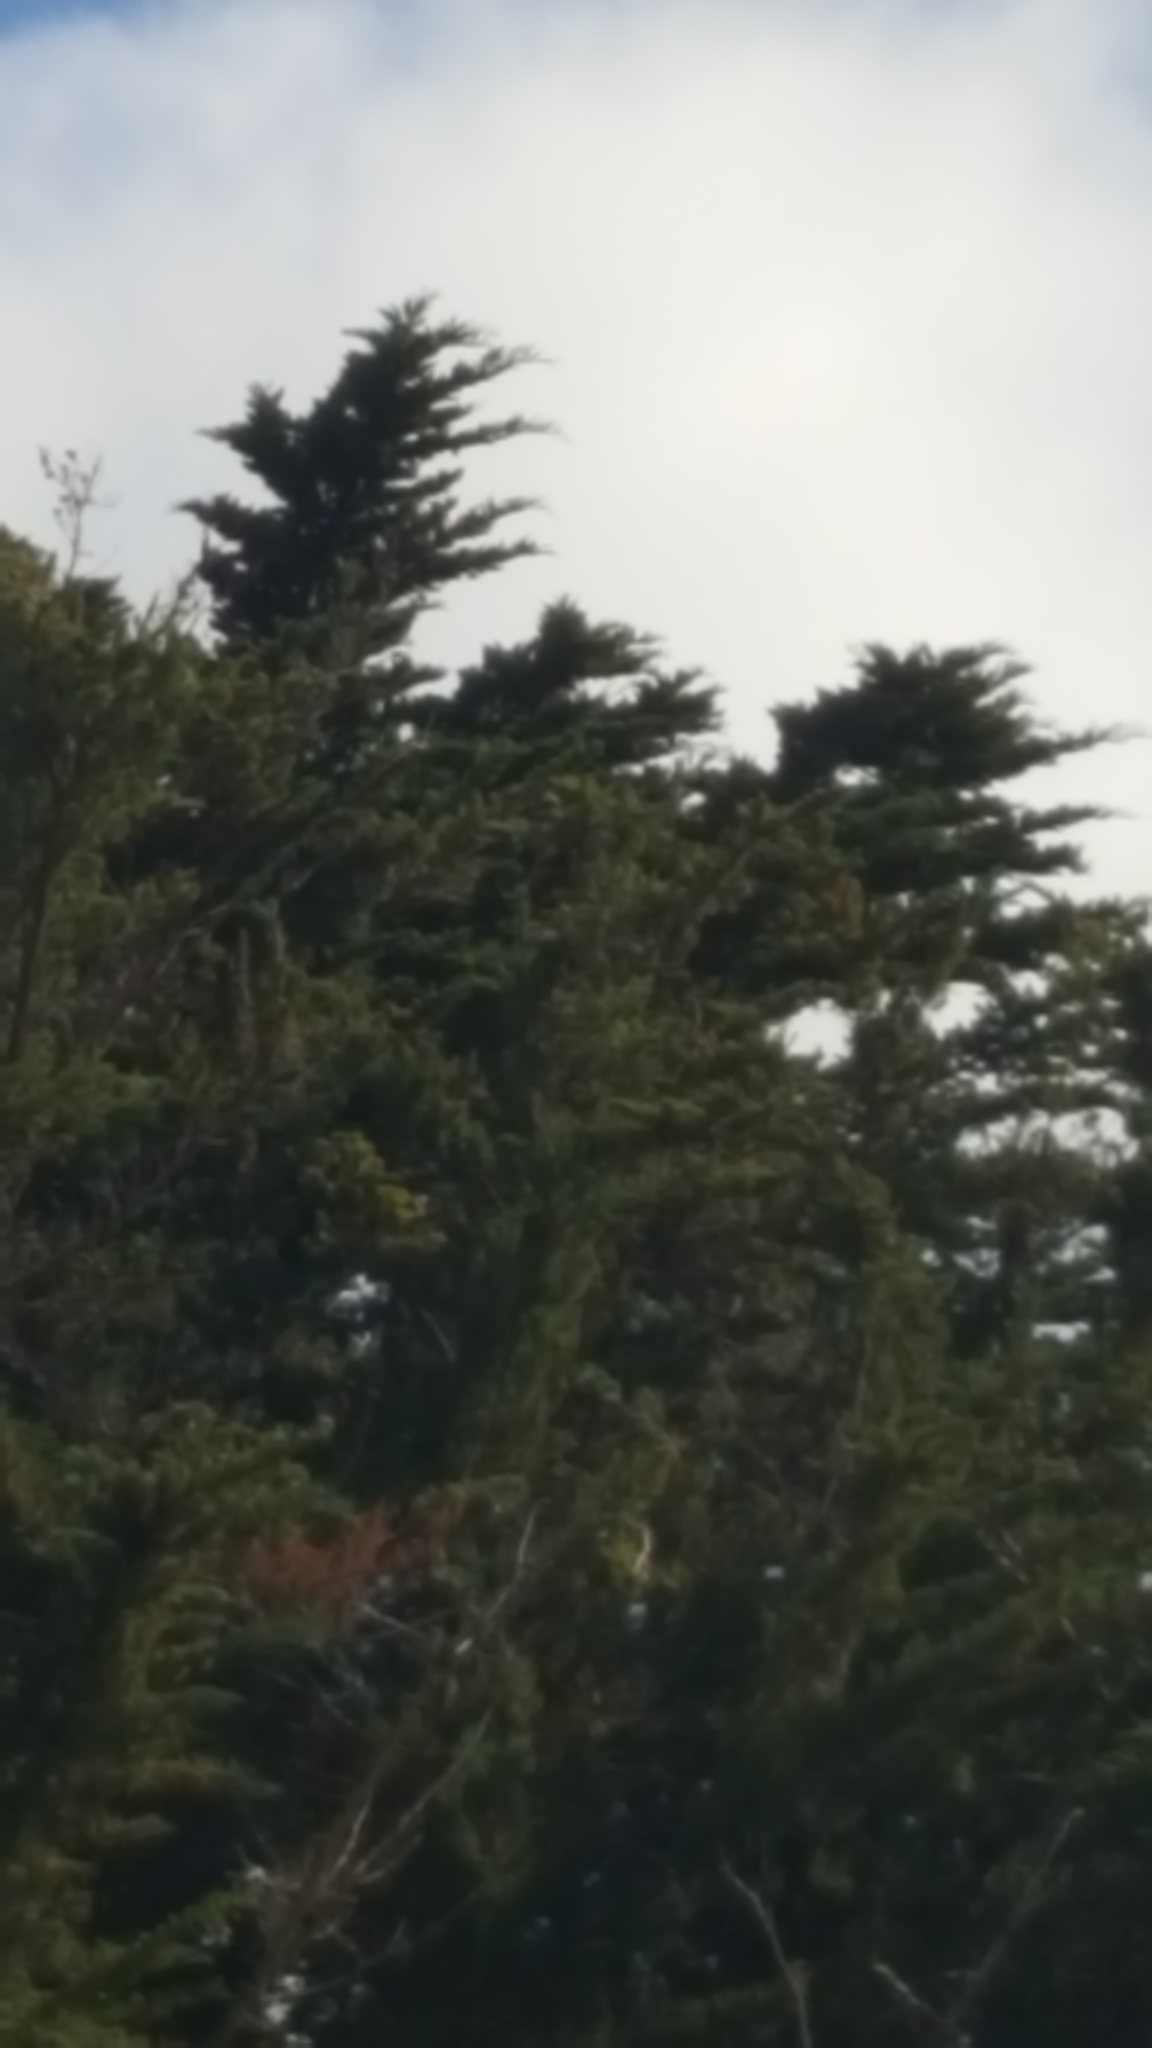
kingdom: Animalia
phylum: Chordata
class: Aves
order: Passeriformes
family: Cracticidae
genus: Gymnorhina
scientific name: Gymnorhina tibicen
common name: Australian magpie
